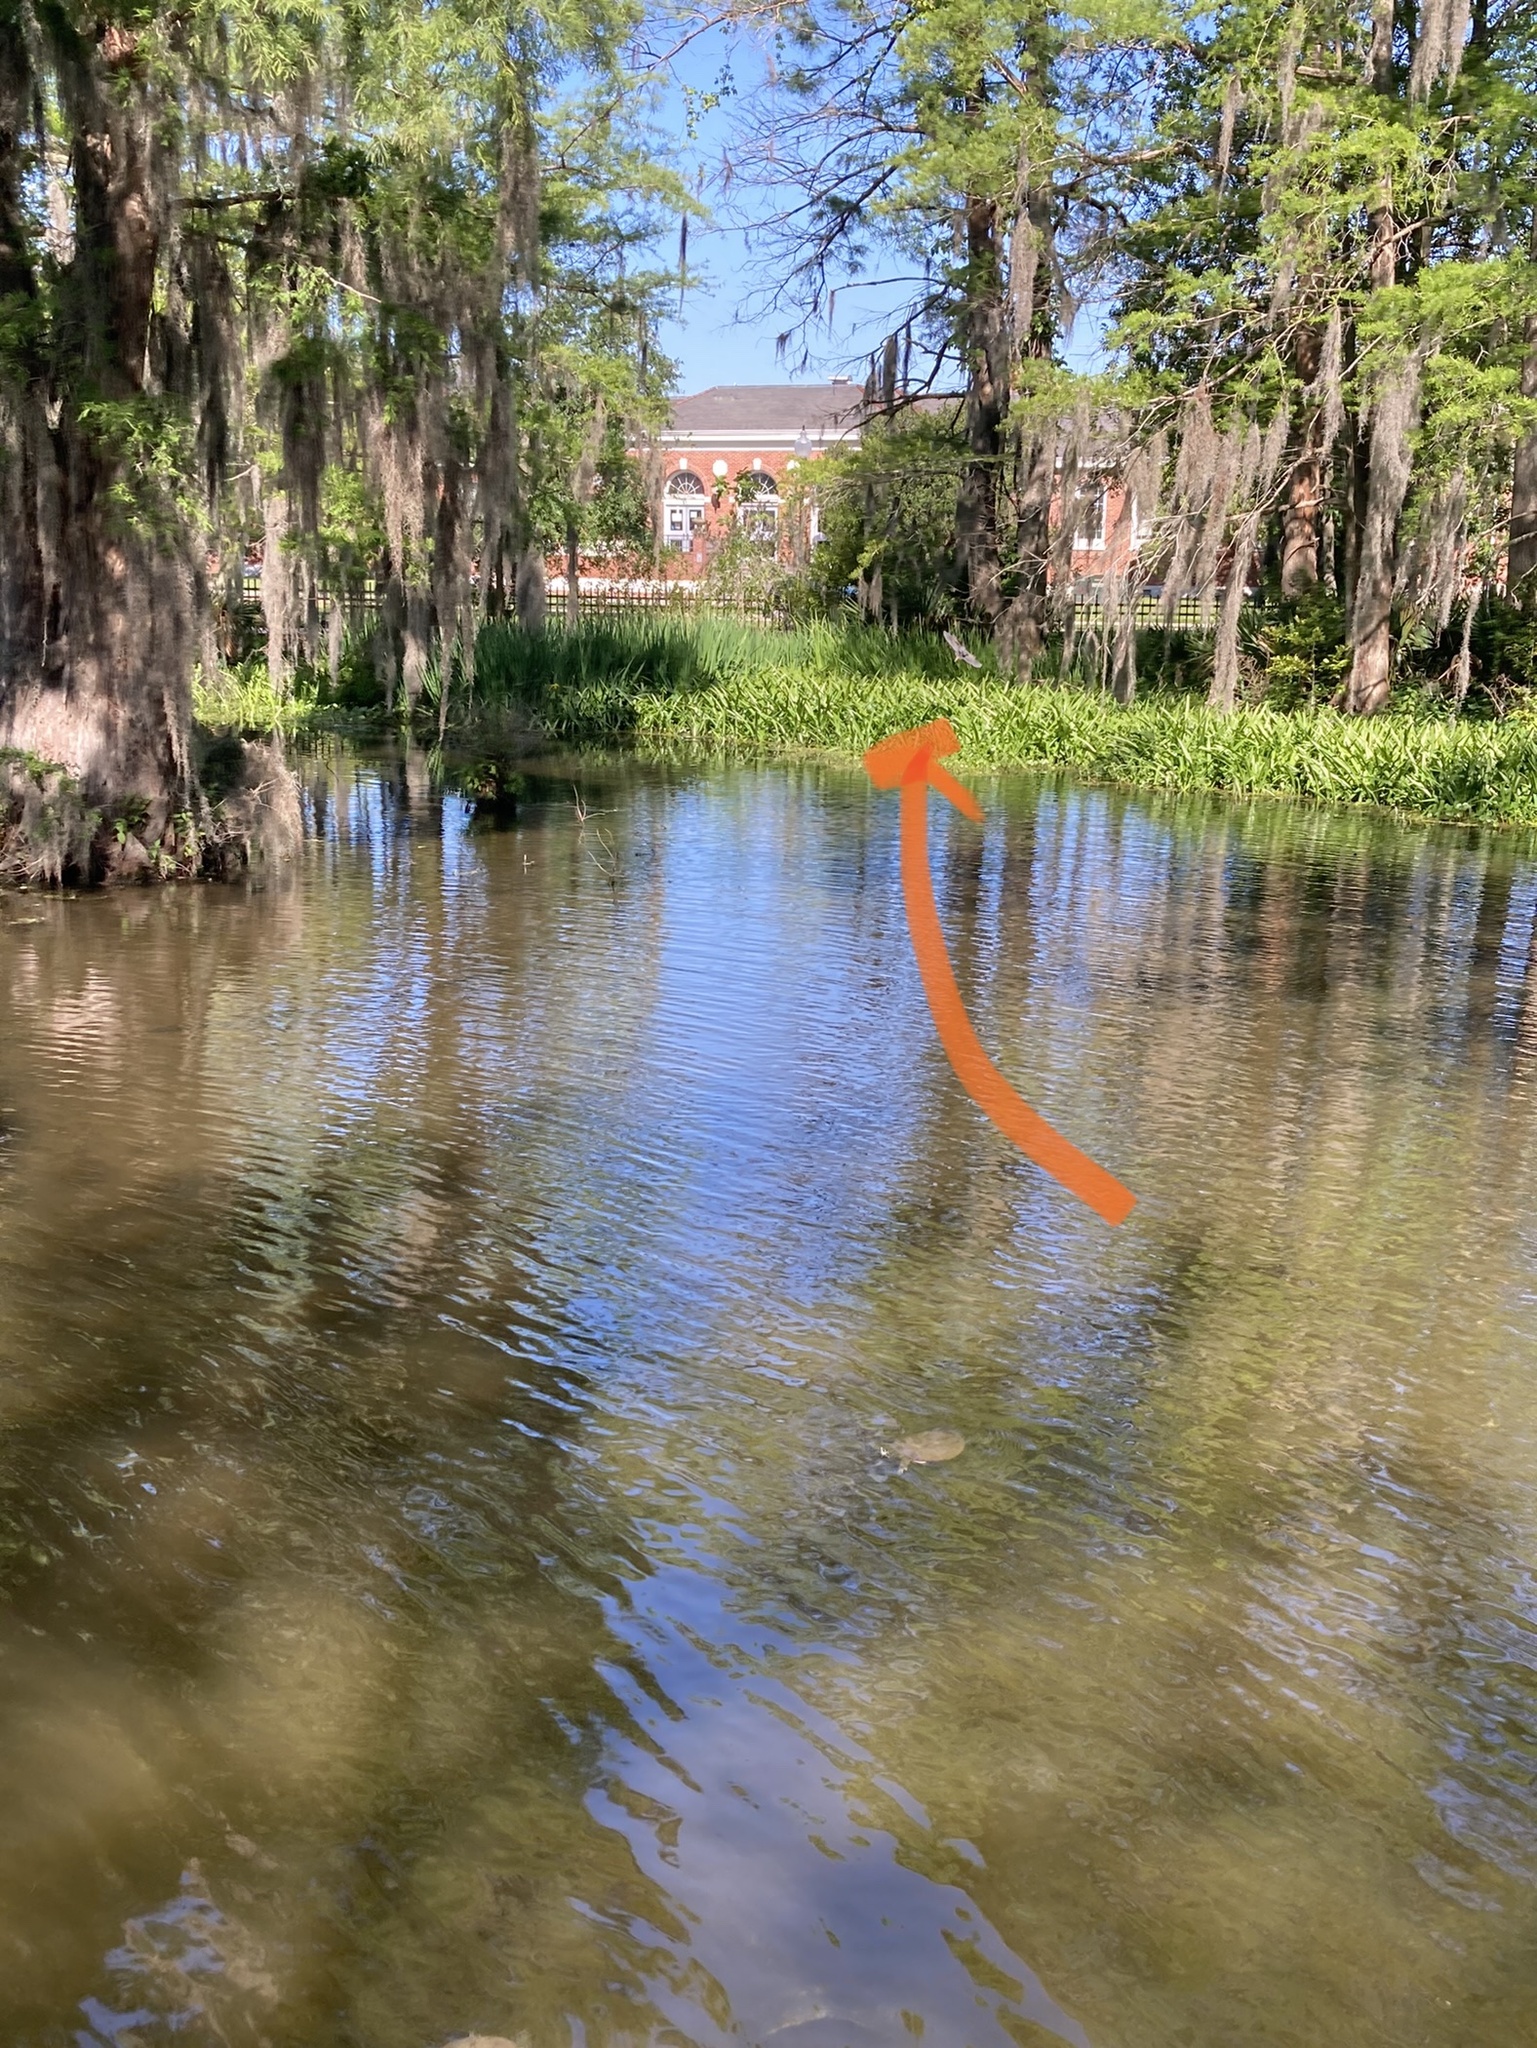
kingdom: Animalia
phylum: Chordata
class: Aves
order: Pelecaniformes
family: Ardeidae
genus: Butorides
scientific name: Butorides virescens
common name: Green heron
